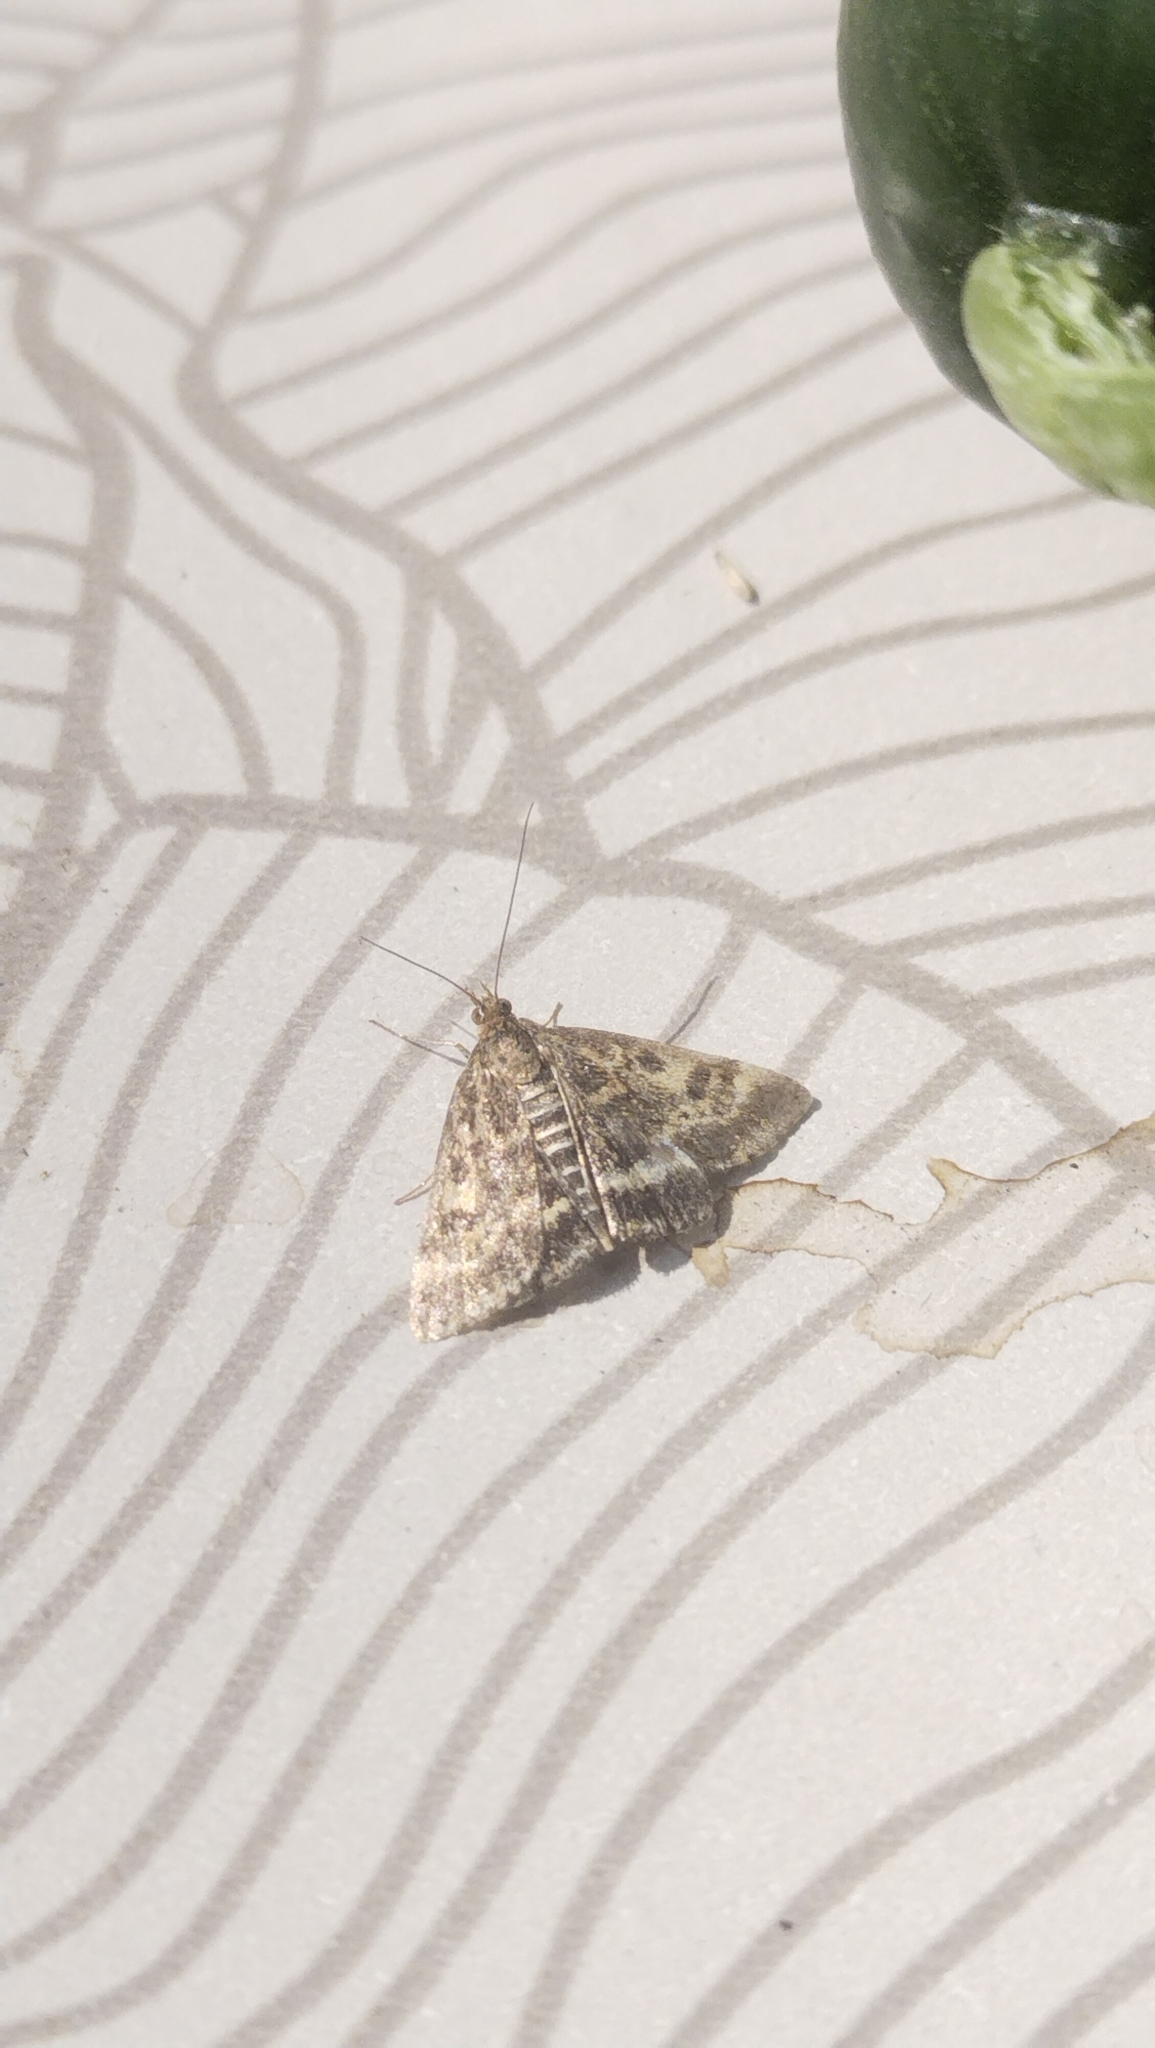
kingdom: Animalia
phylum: Arthropoda
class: Insecta
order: Lepidoptera
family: Crambidae
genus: Pyrausta
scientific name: Pyrausta despicata
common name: Straw-barred pearl
